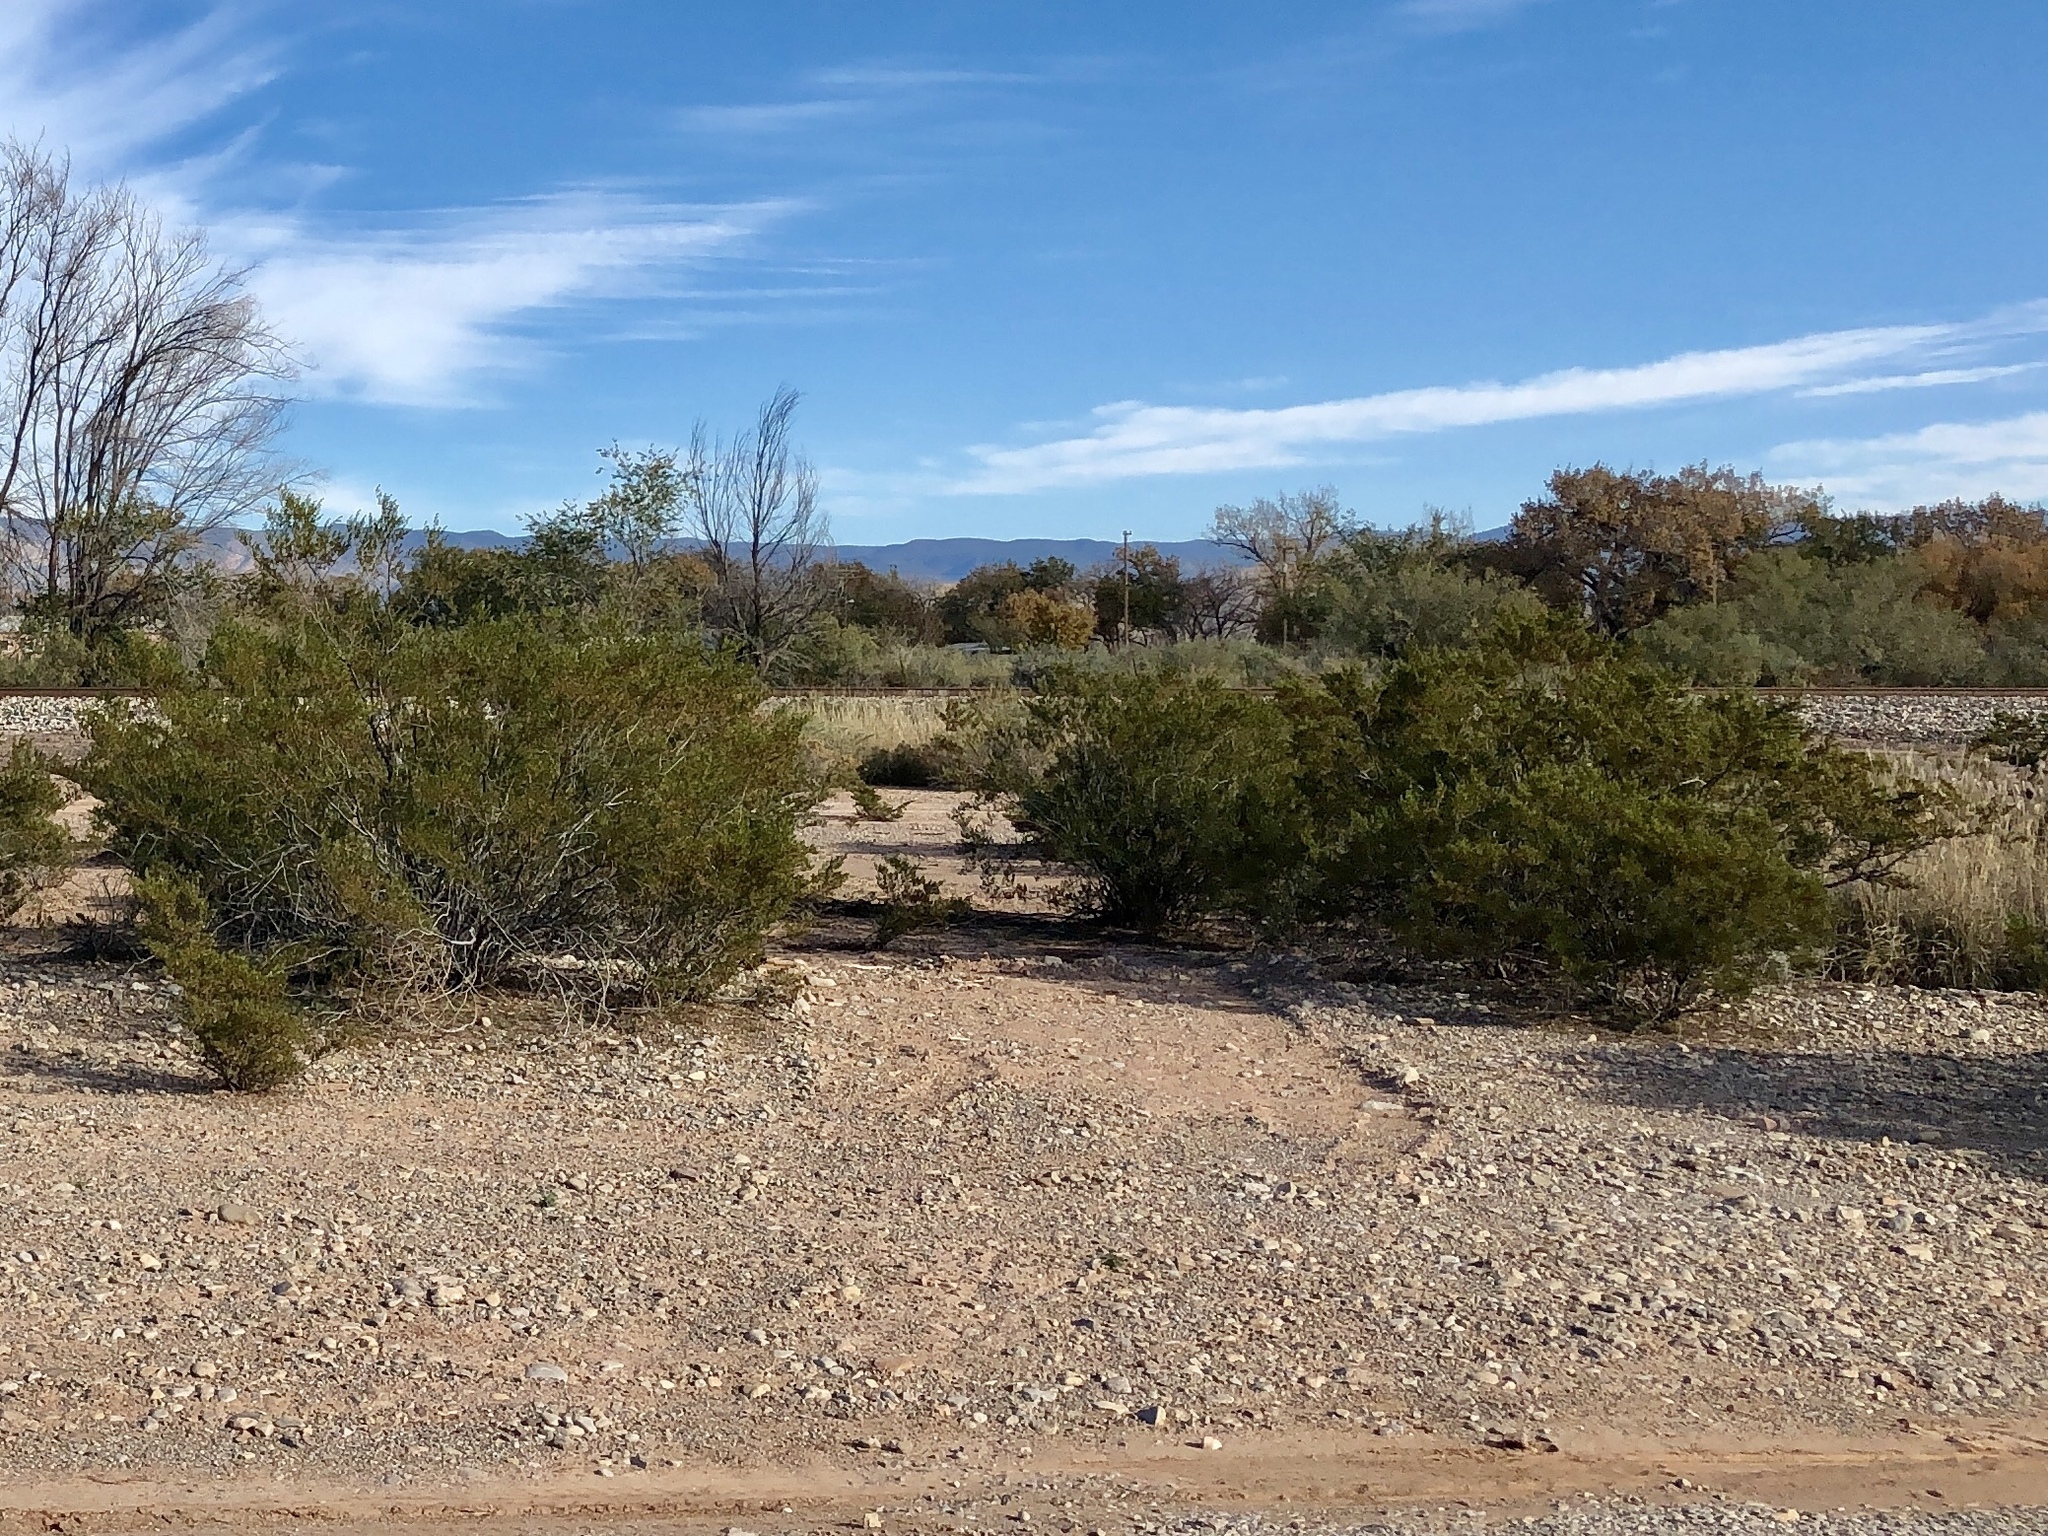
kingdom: Plantae
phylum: Tracheophyta
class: Magnoliopsida
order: Zygophyllales
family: Zygophyllaceae
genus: Larrea
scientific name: Larrea tridentata
